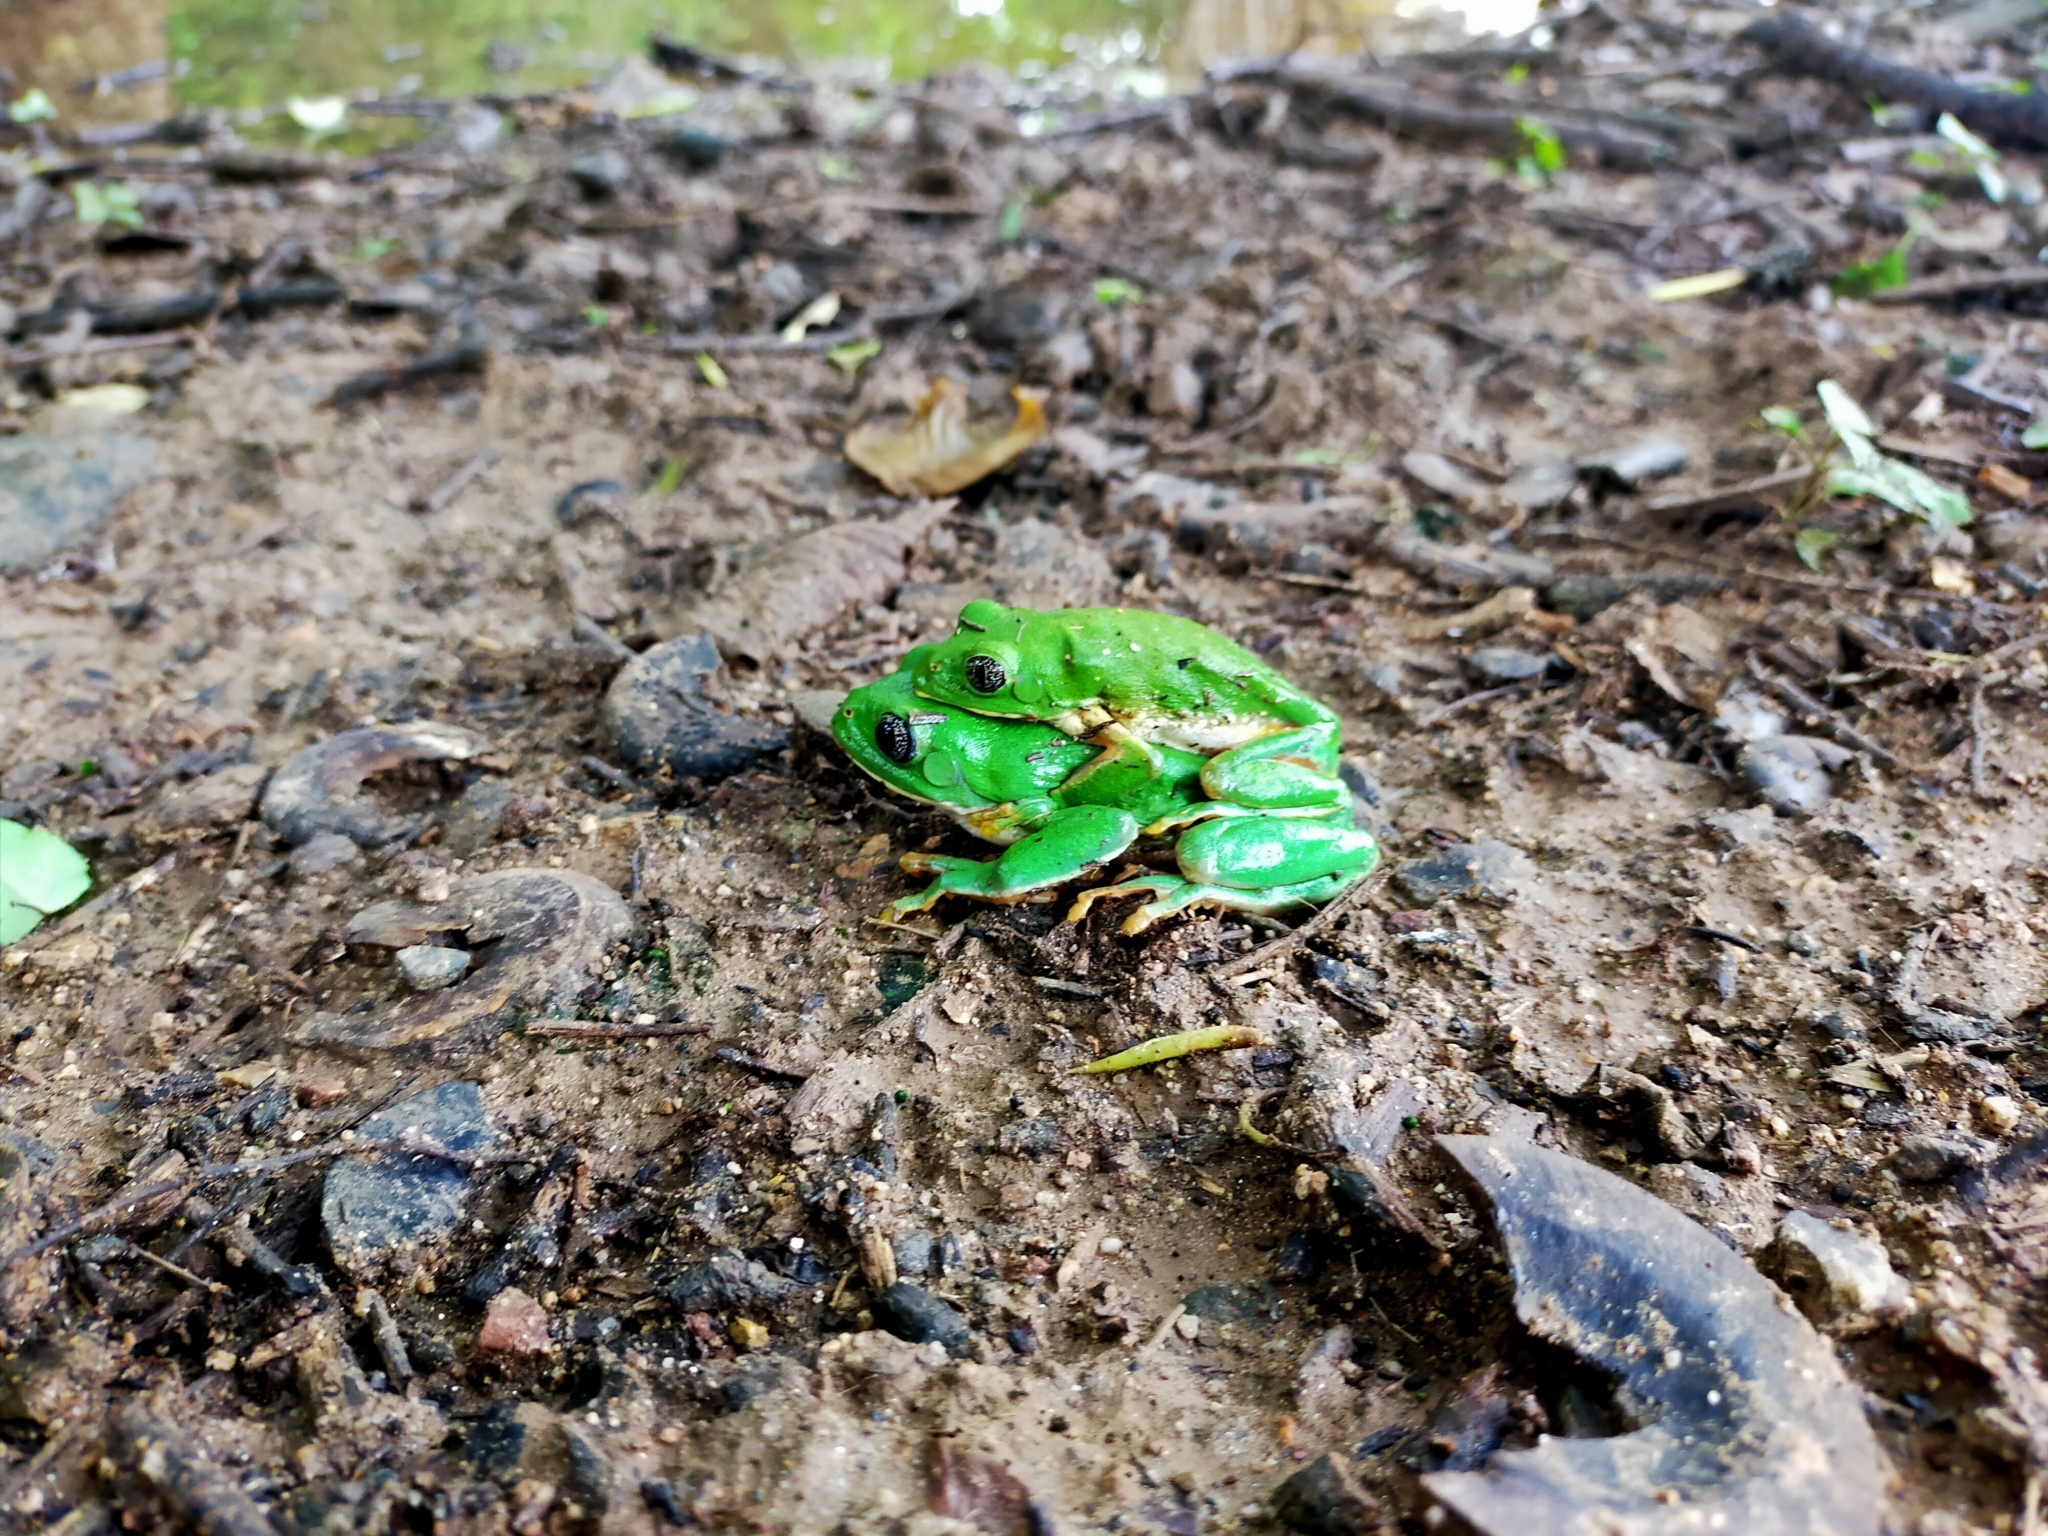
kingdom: Animalia
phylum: Chordata
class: Amphibia
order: Anura
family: Phyllomedusidae
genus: Agalychnis
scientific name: Agalychnis dacnicolor
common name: Mexican giant tree frog
